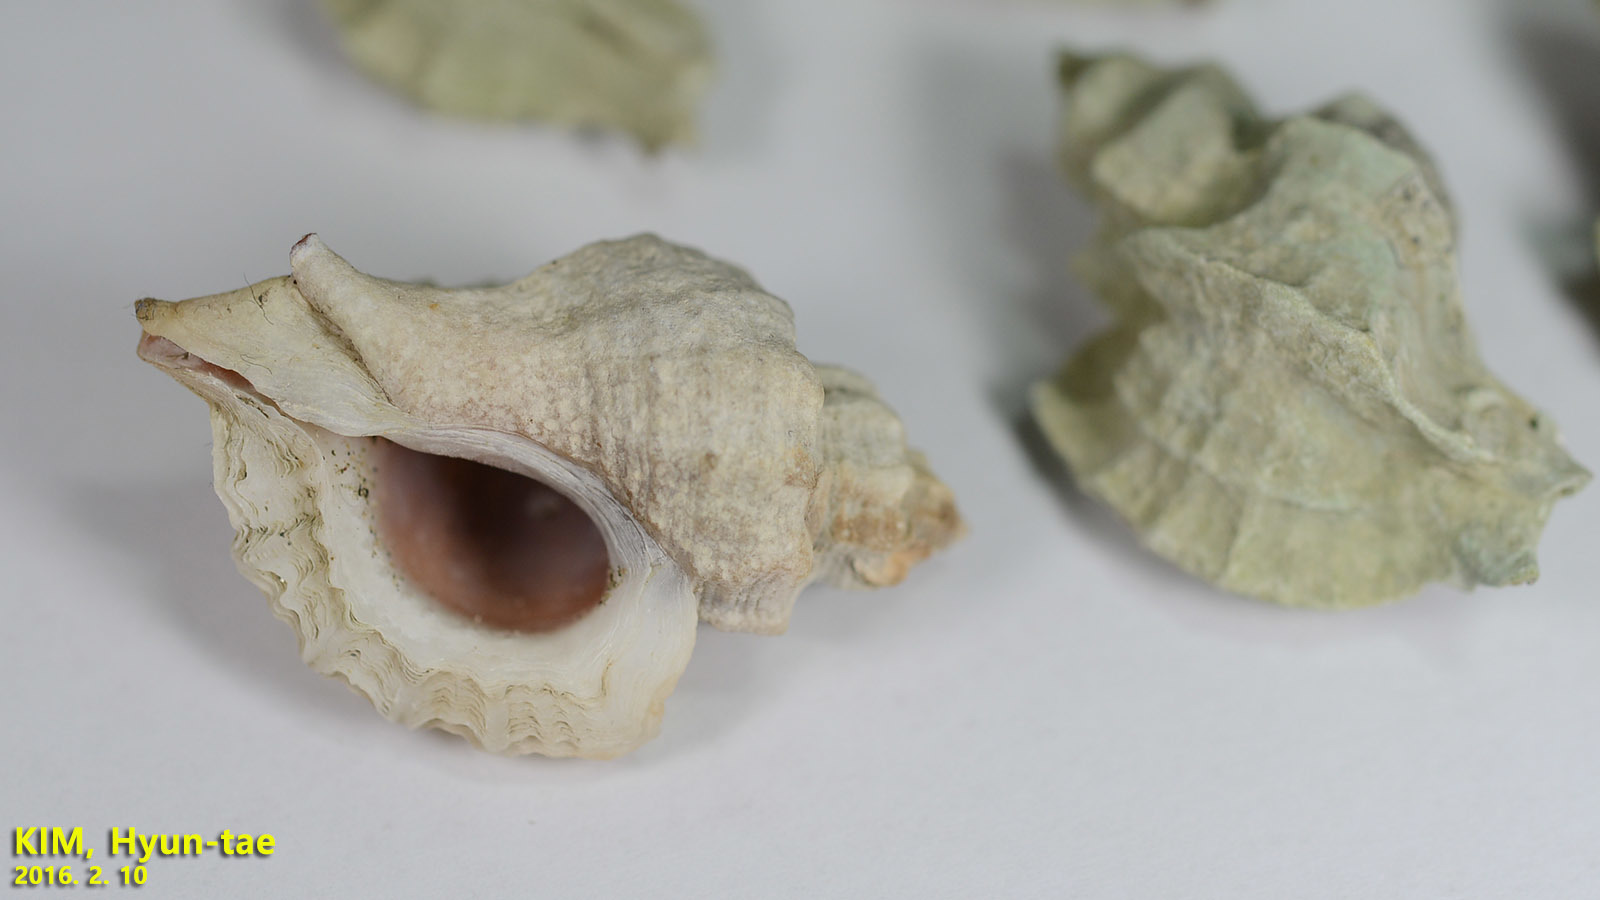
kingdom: Animalia
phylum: Mollusca
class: Gastropoda
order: Neogastropoda
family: Muricidae
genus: Ocinebrellus
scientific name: Ocinebrellus inornatus
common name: Asian drill snail
